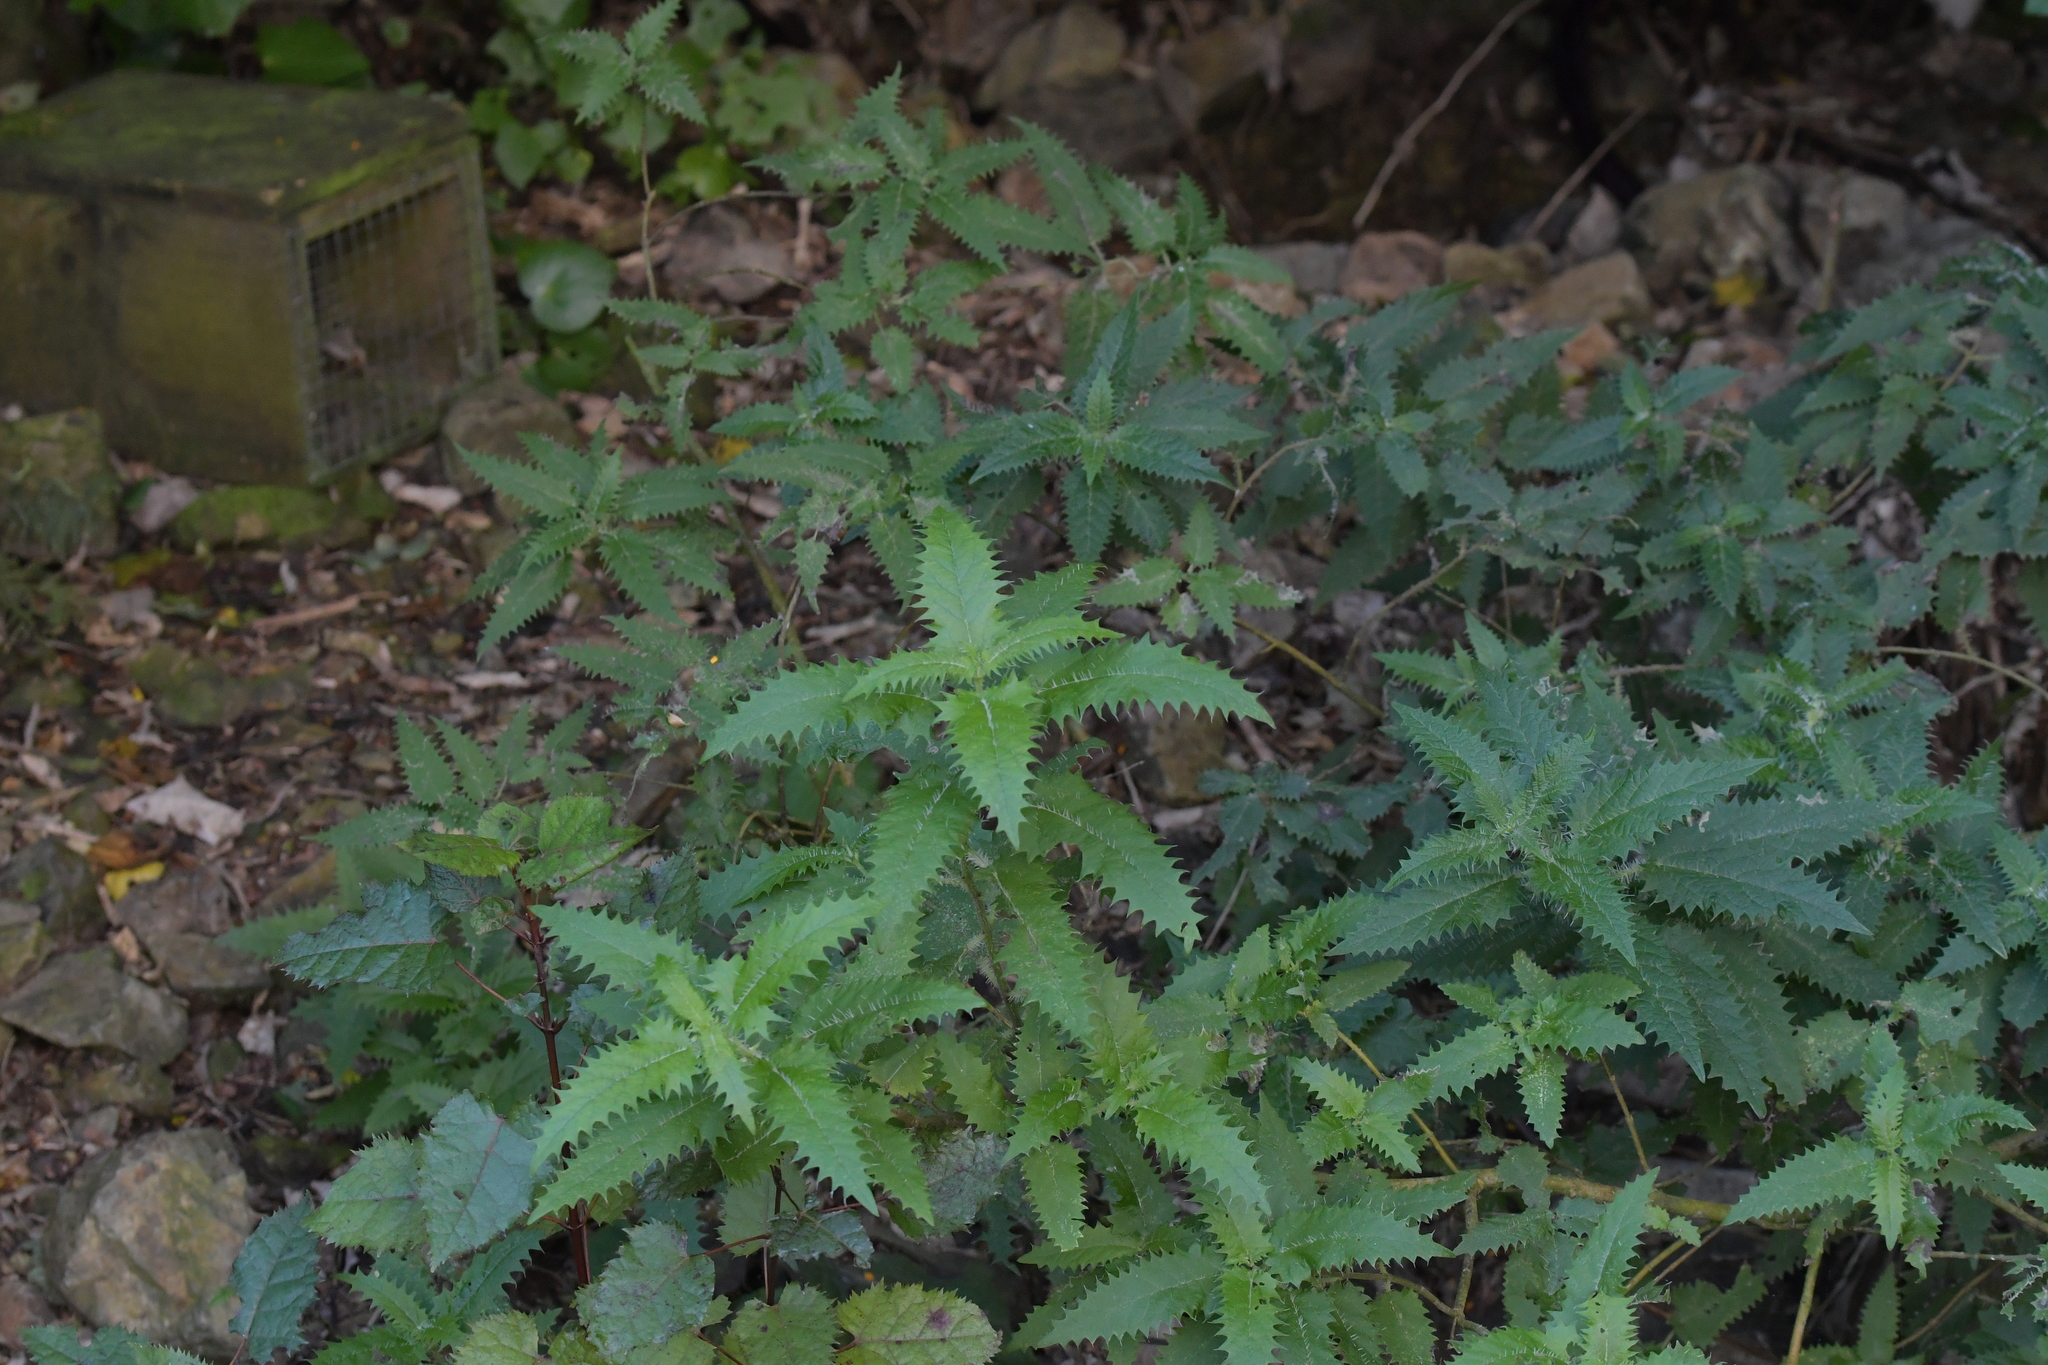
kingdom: Plantae
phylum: Tracheophyta
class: Magnoliopsida
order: Rosales
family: Urticaceae
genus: Urtica
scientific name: Urtica ferox
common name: Tree nettle
